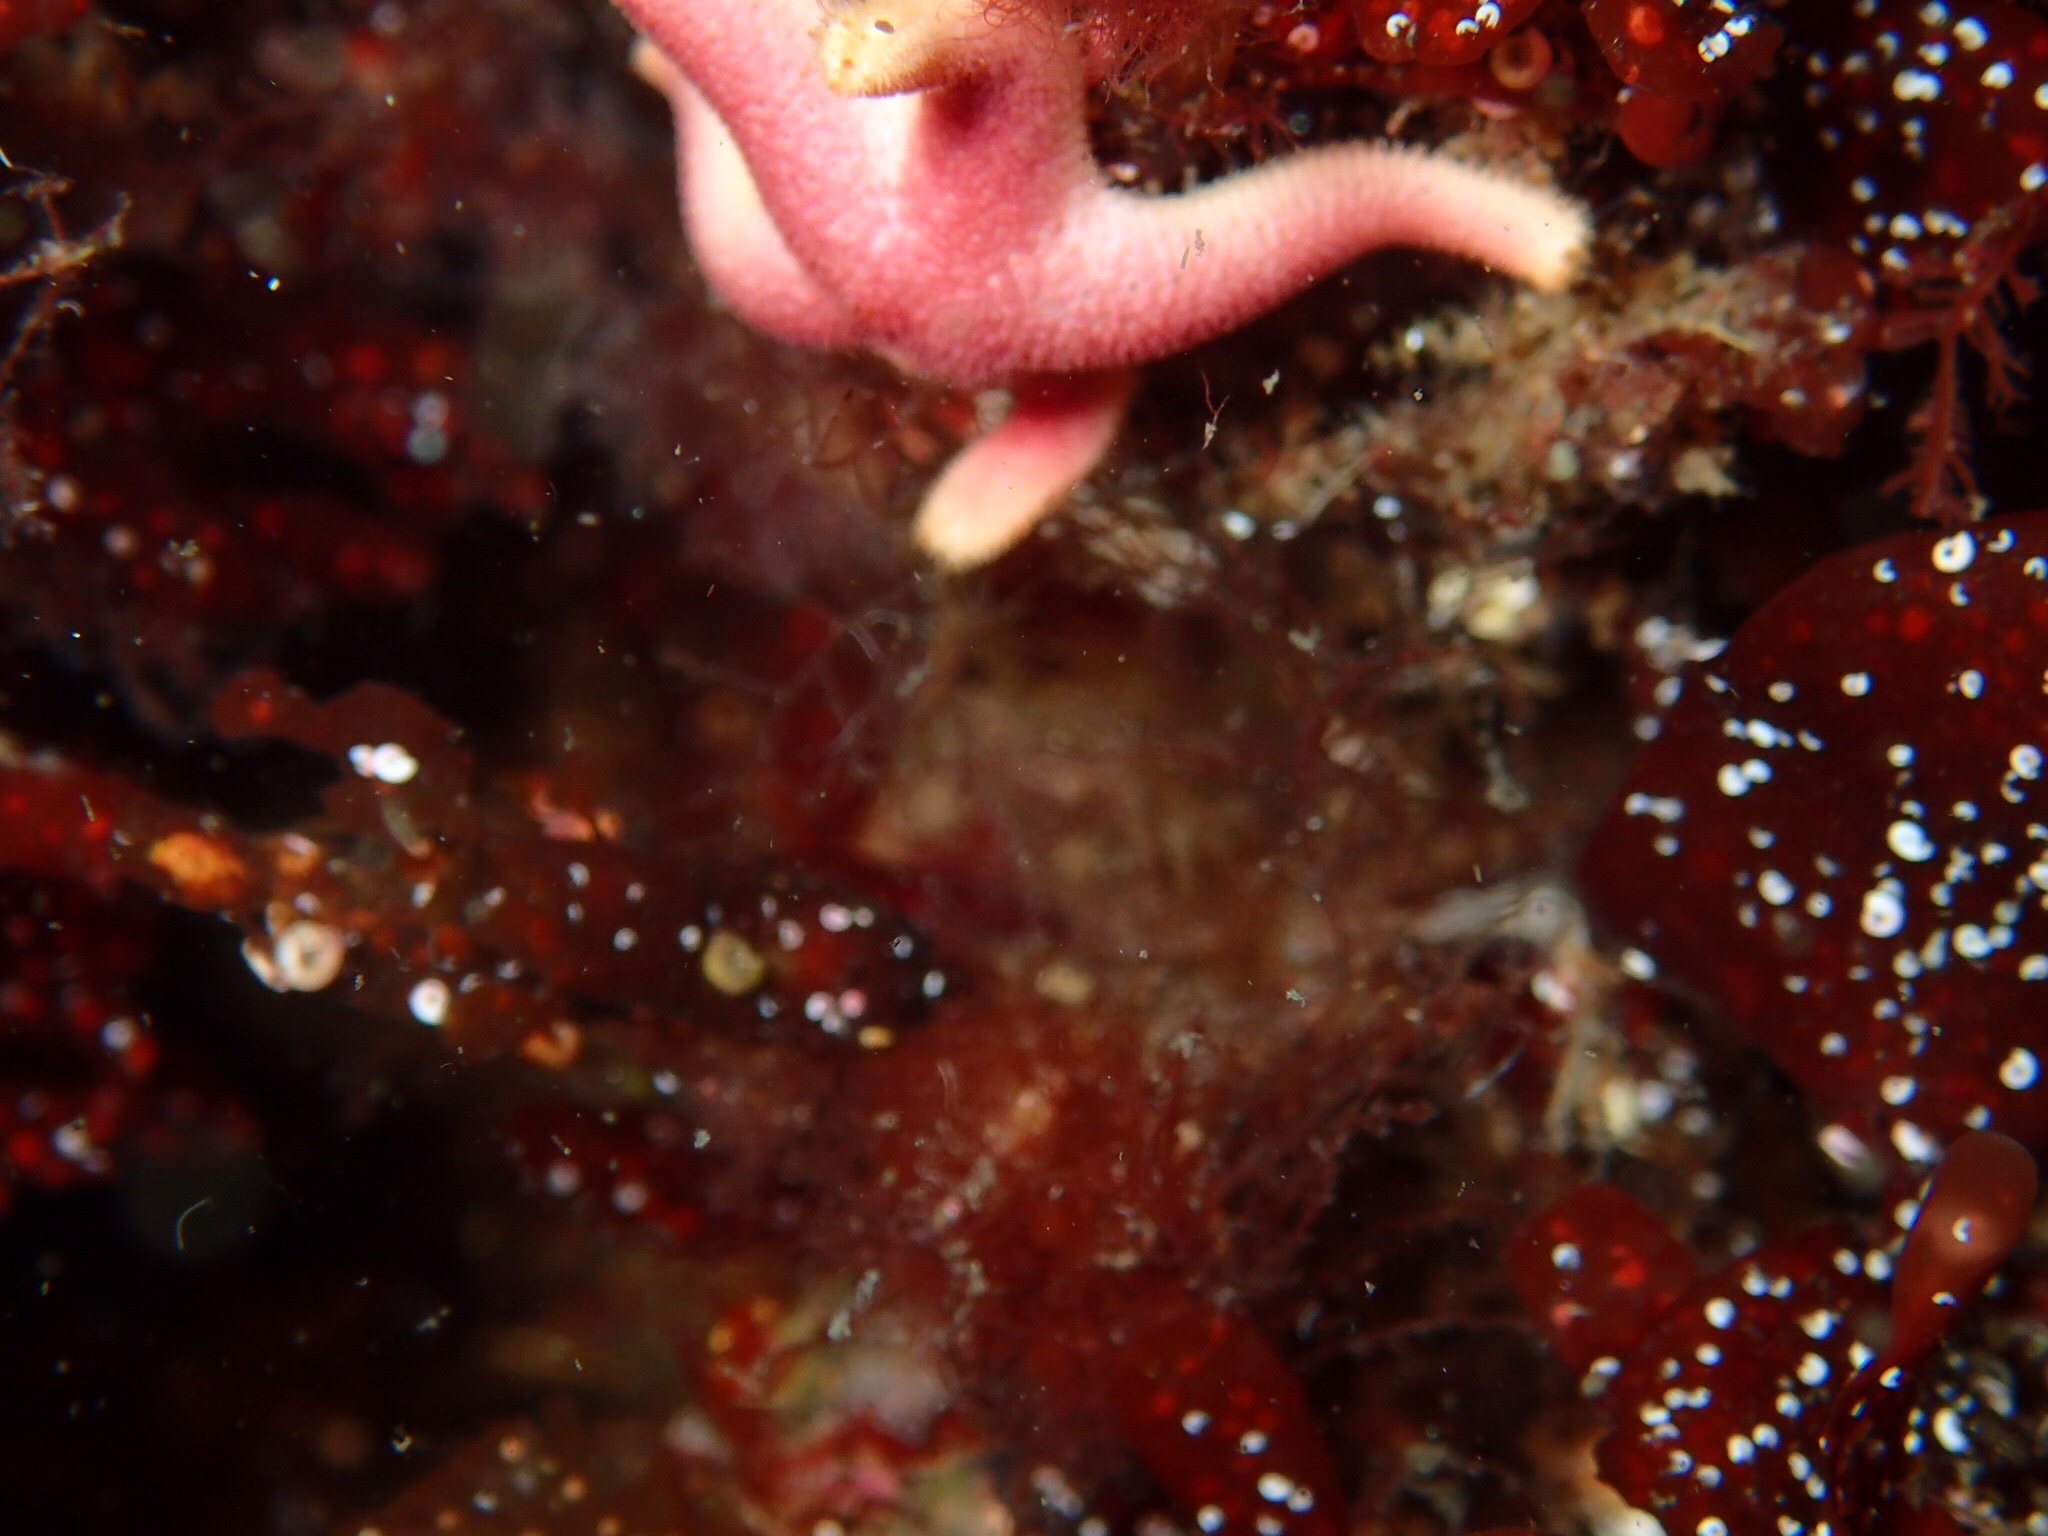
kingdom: Animalia
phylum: Echinodermata
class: Asteroidea
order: Spinulosida
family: Echinasteridae
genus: Henricia
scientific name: Henricia sanguinolenta
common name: Blood star
